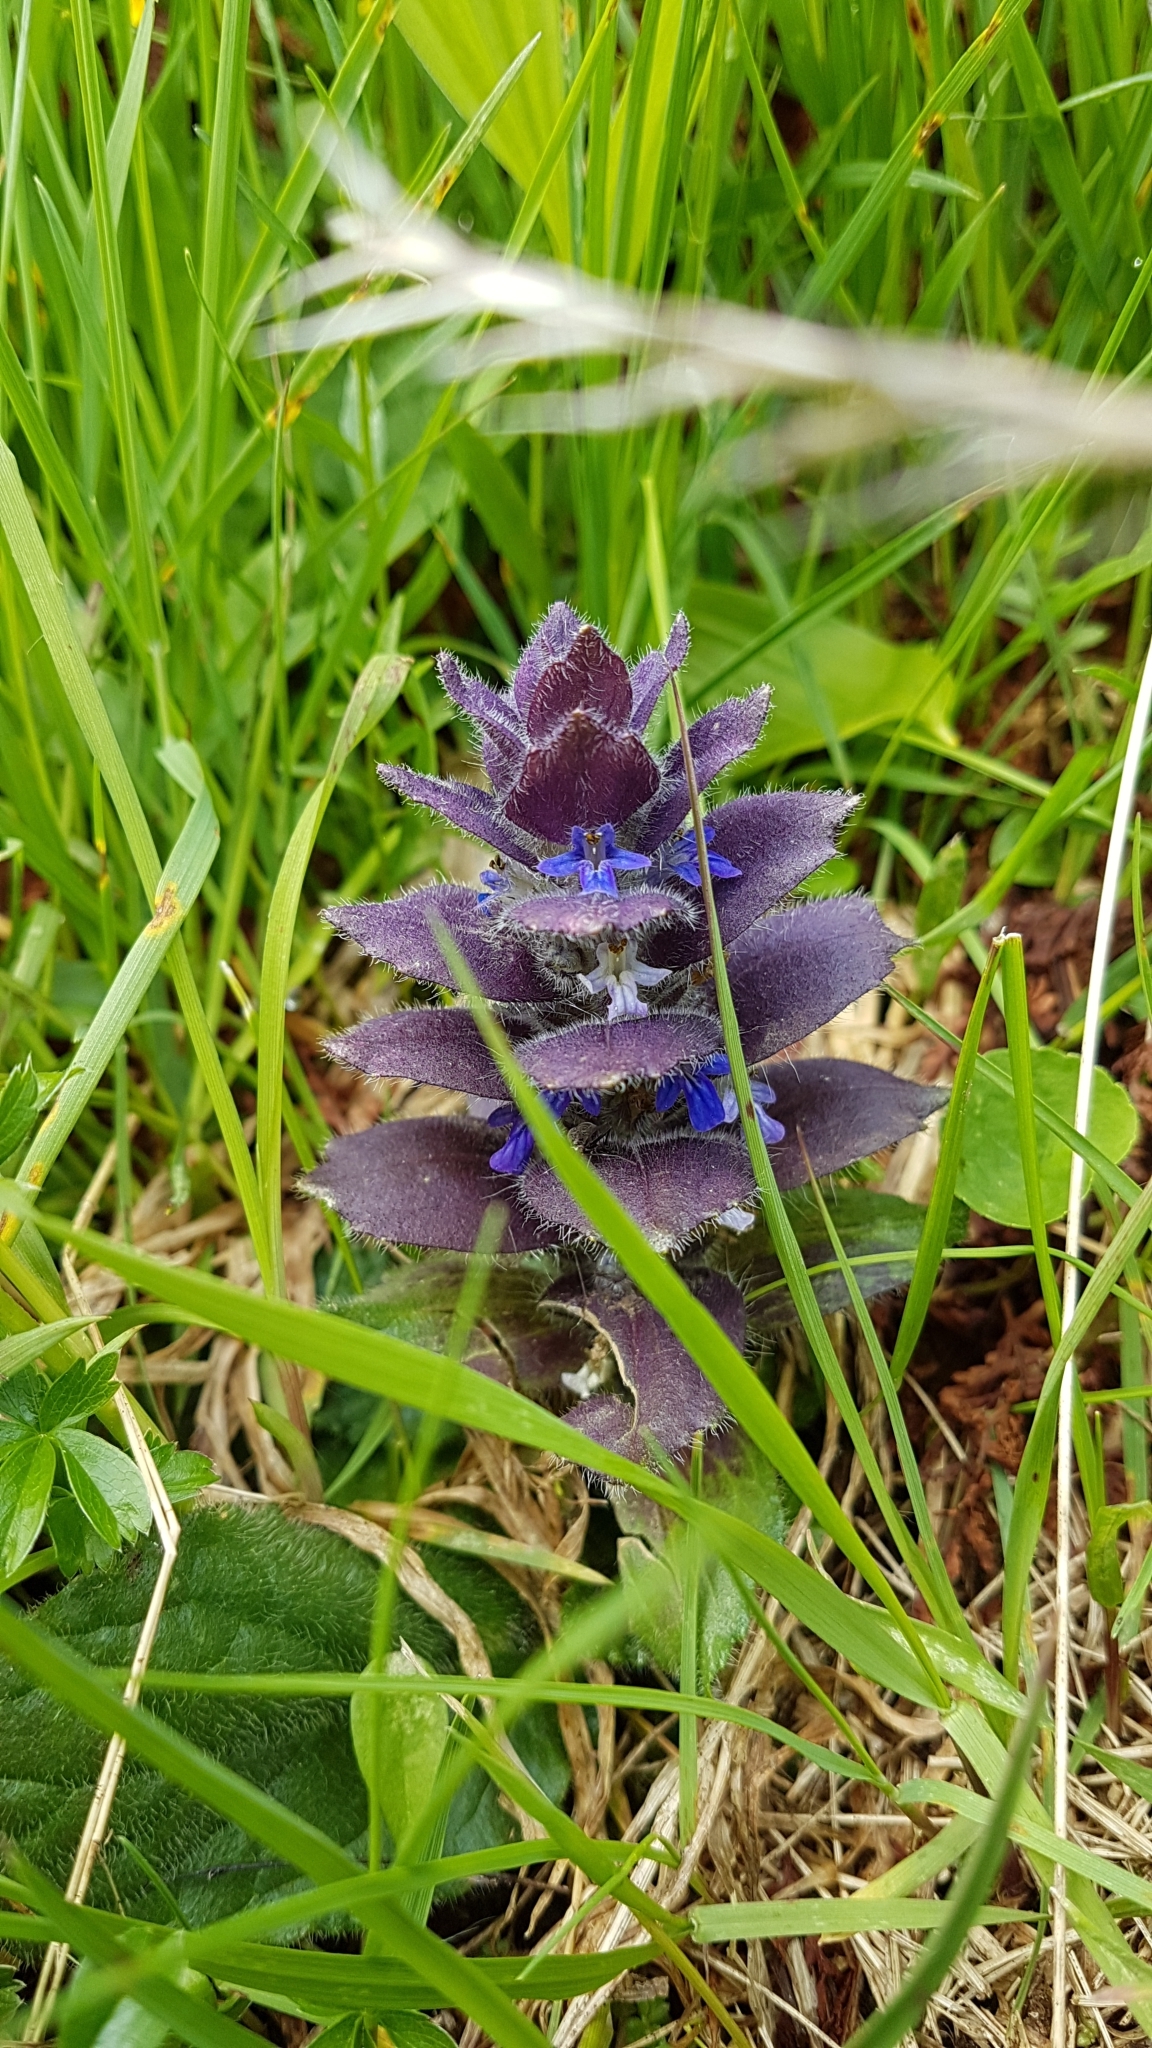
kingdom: Plantae
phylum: Tracheophyta
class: Magnoliopsida
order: Lamiales
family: Lamiaceae
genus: Ajuga
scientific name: Ajuga pyramidalis
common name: Pyramid bugle
